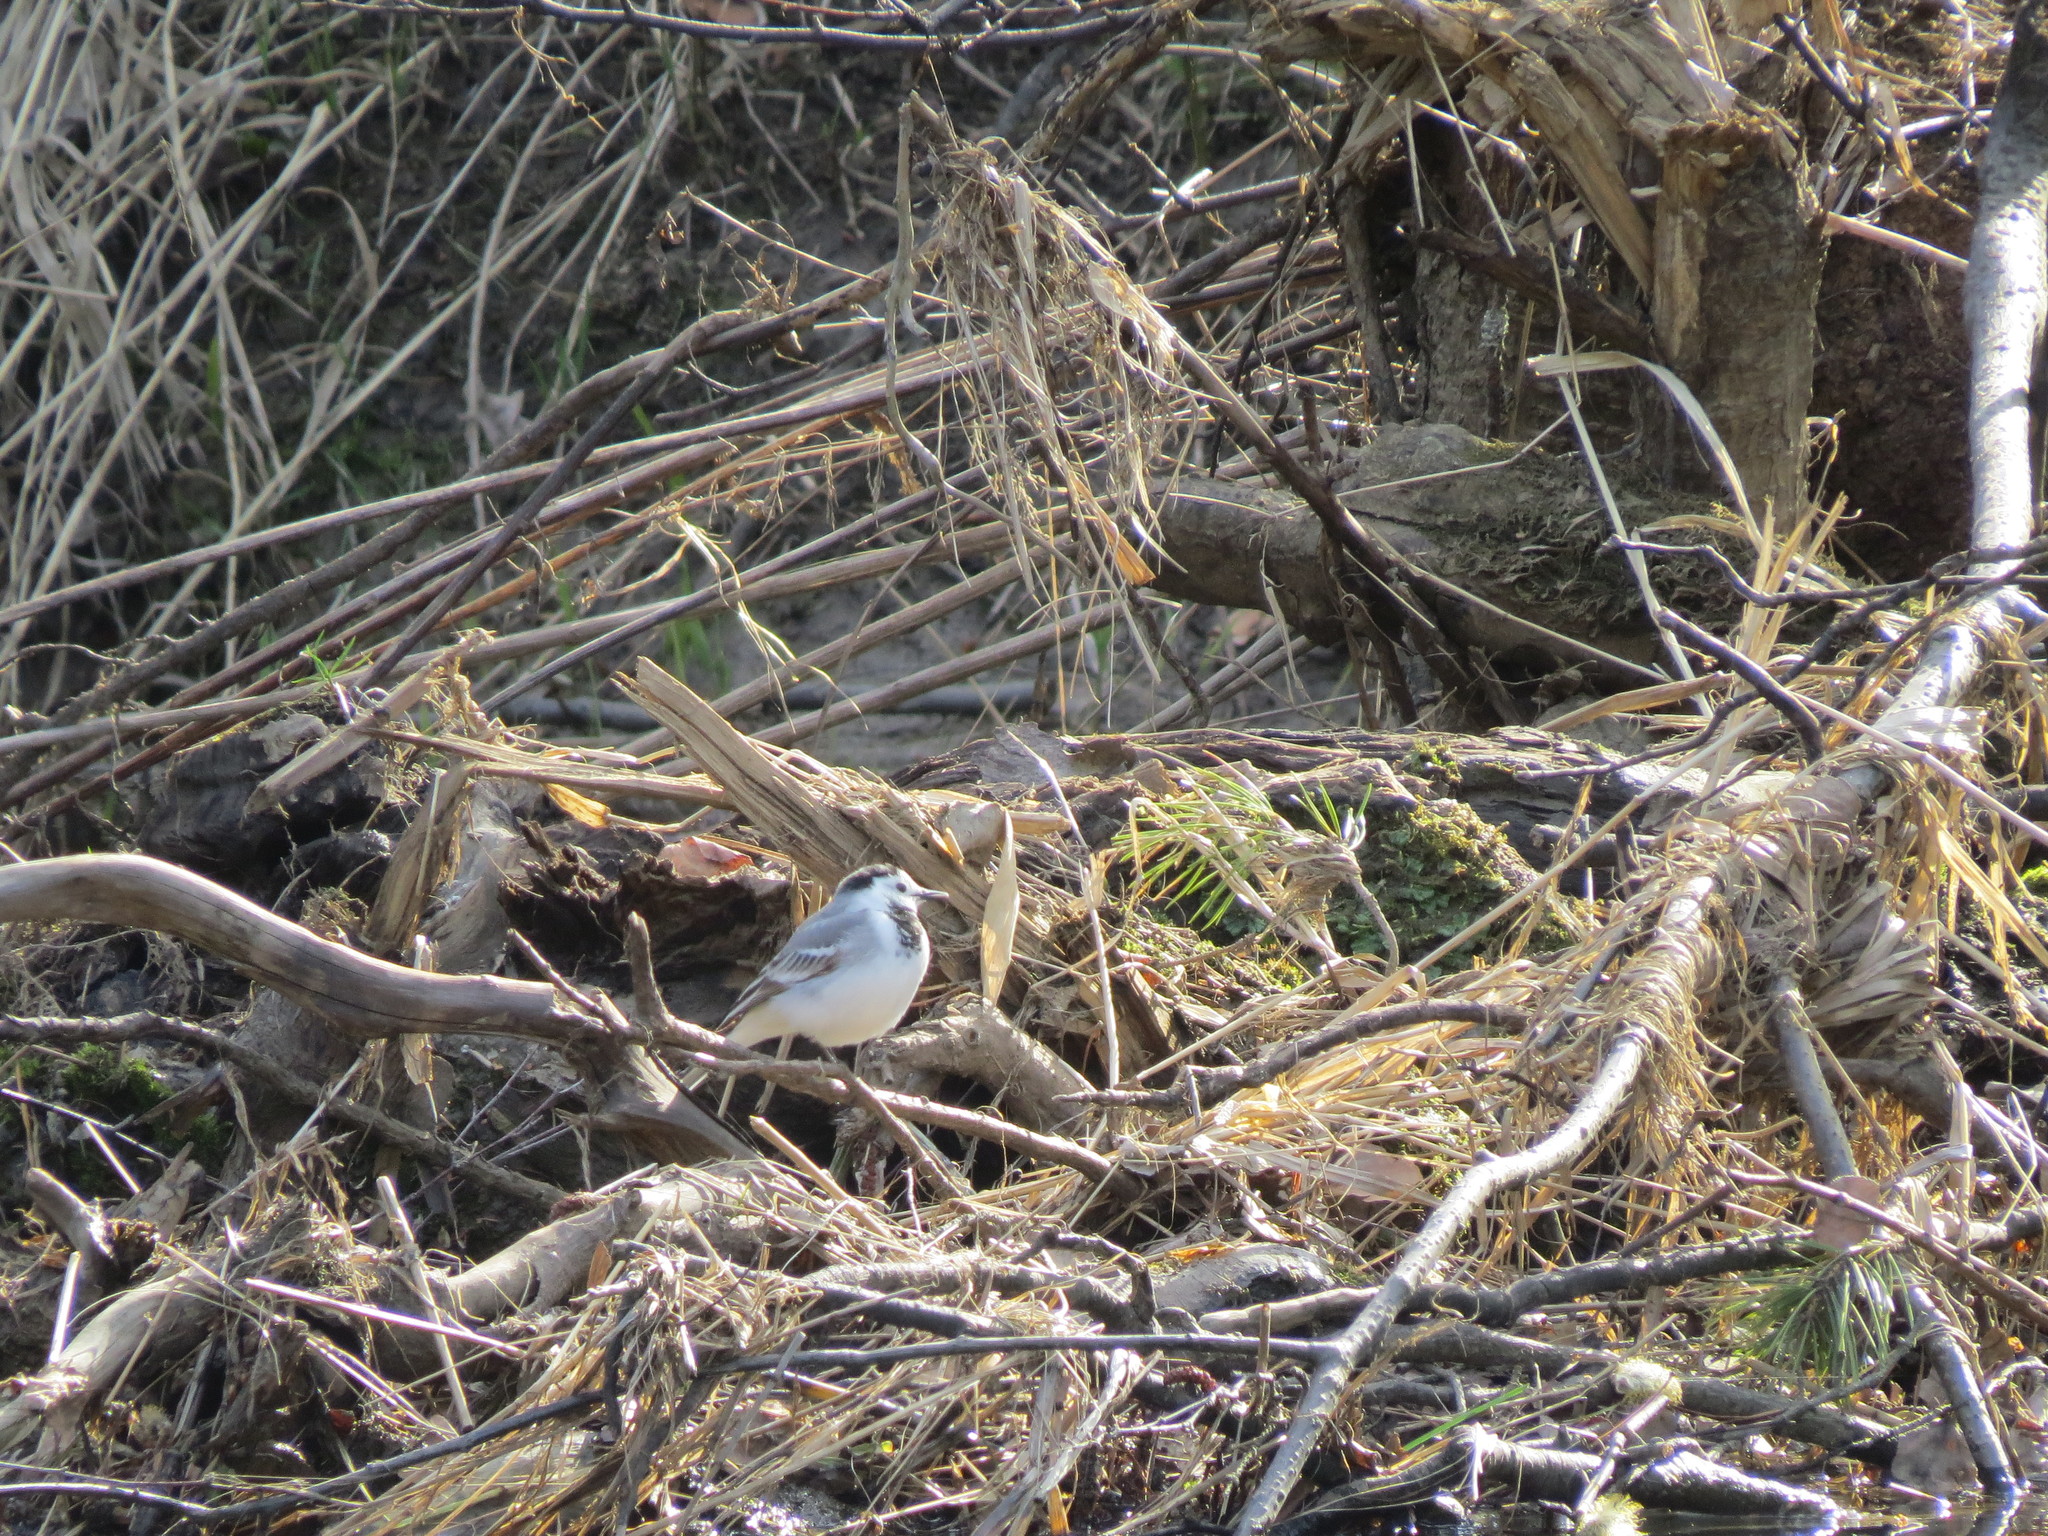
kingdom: Animalia
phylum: Chordata
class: Aves
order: Passeriformes
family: Motacillidae
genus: Motacilla
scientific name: Motacilla alba
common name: White wagtail
